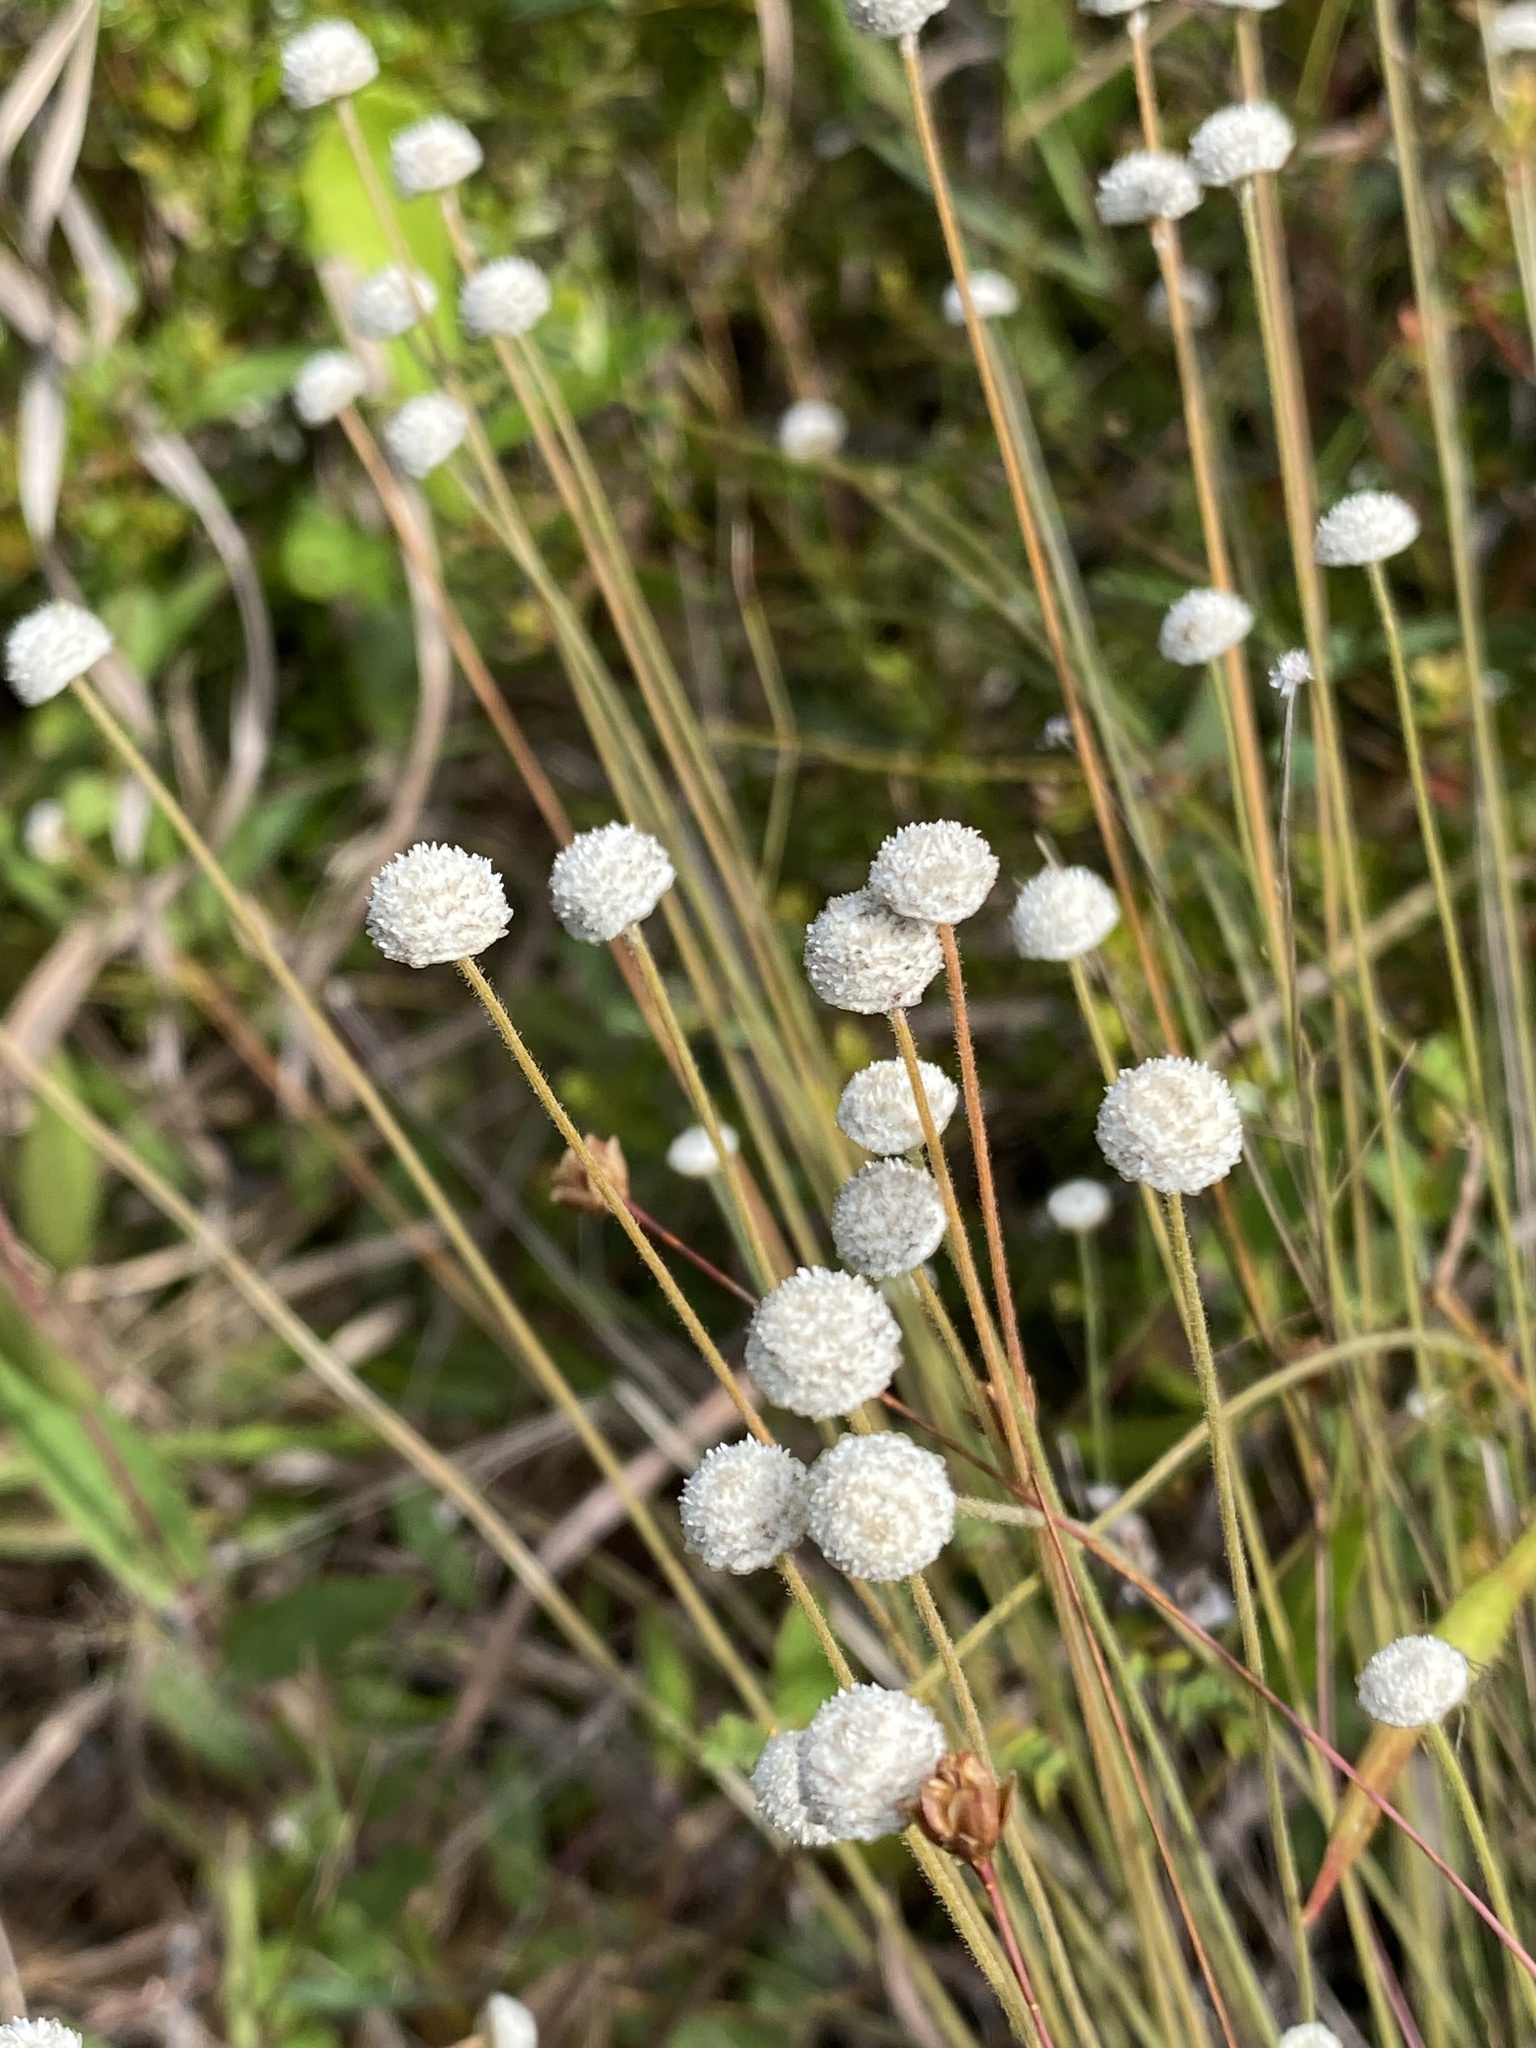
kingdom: Plantae
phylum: Tracheophyta
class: Liliopsida
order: Poales
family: Eriocaulaceae
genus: Syngonanthus
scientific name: Syngonanthus flavidulus
